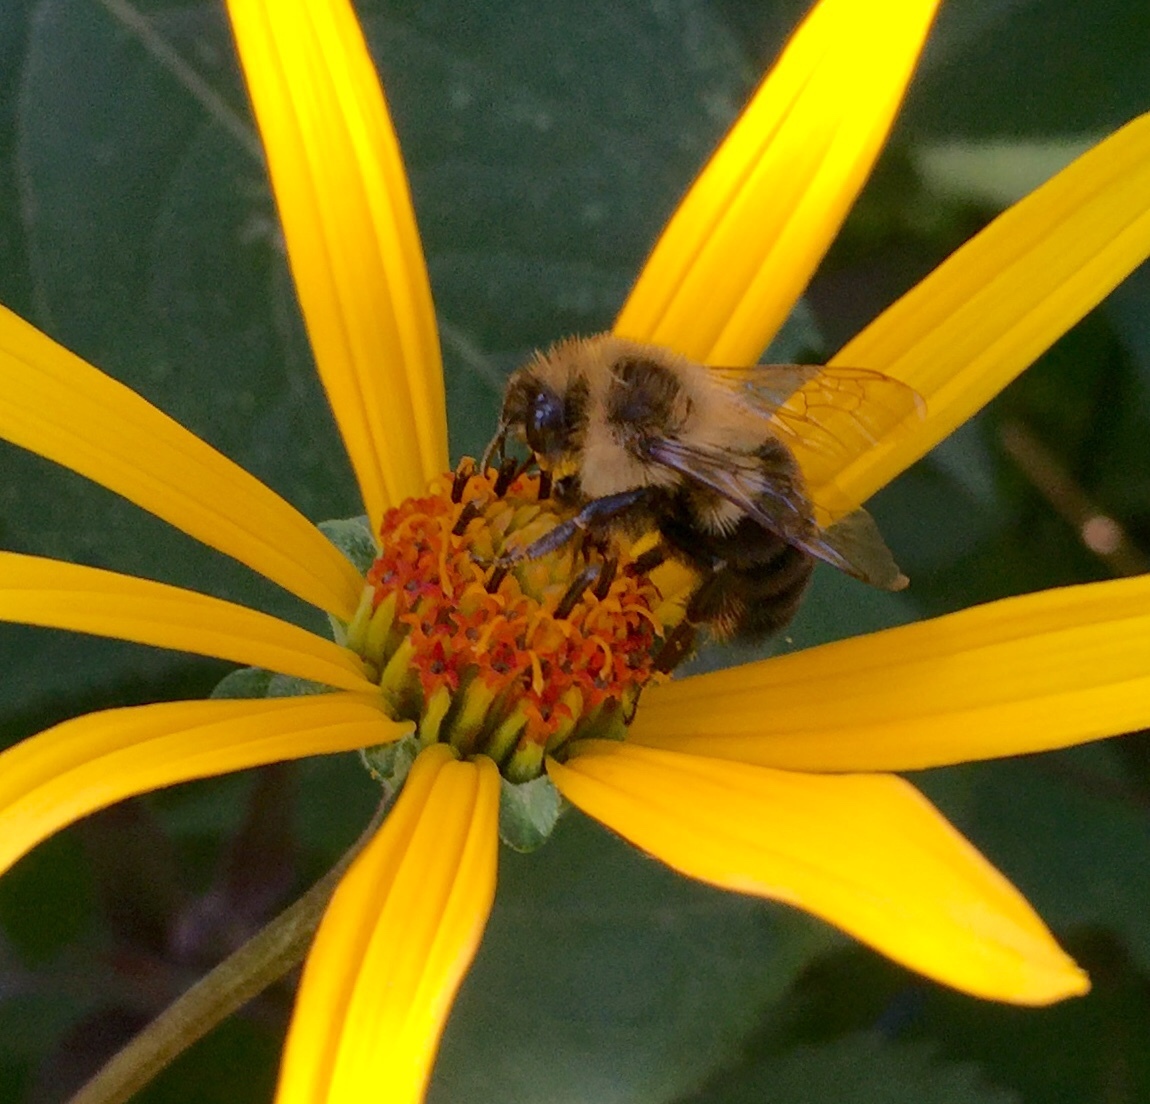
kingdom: Animalia
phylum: Arthropoda
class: Insecta
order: Hymenoptera
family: Apidae
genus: Bombus
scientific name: Bombus impatiens
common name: Common eastern bumble bee
